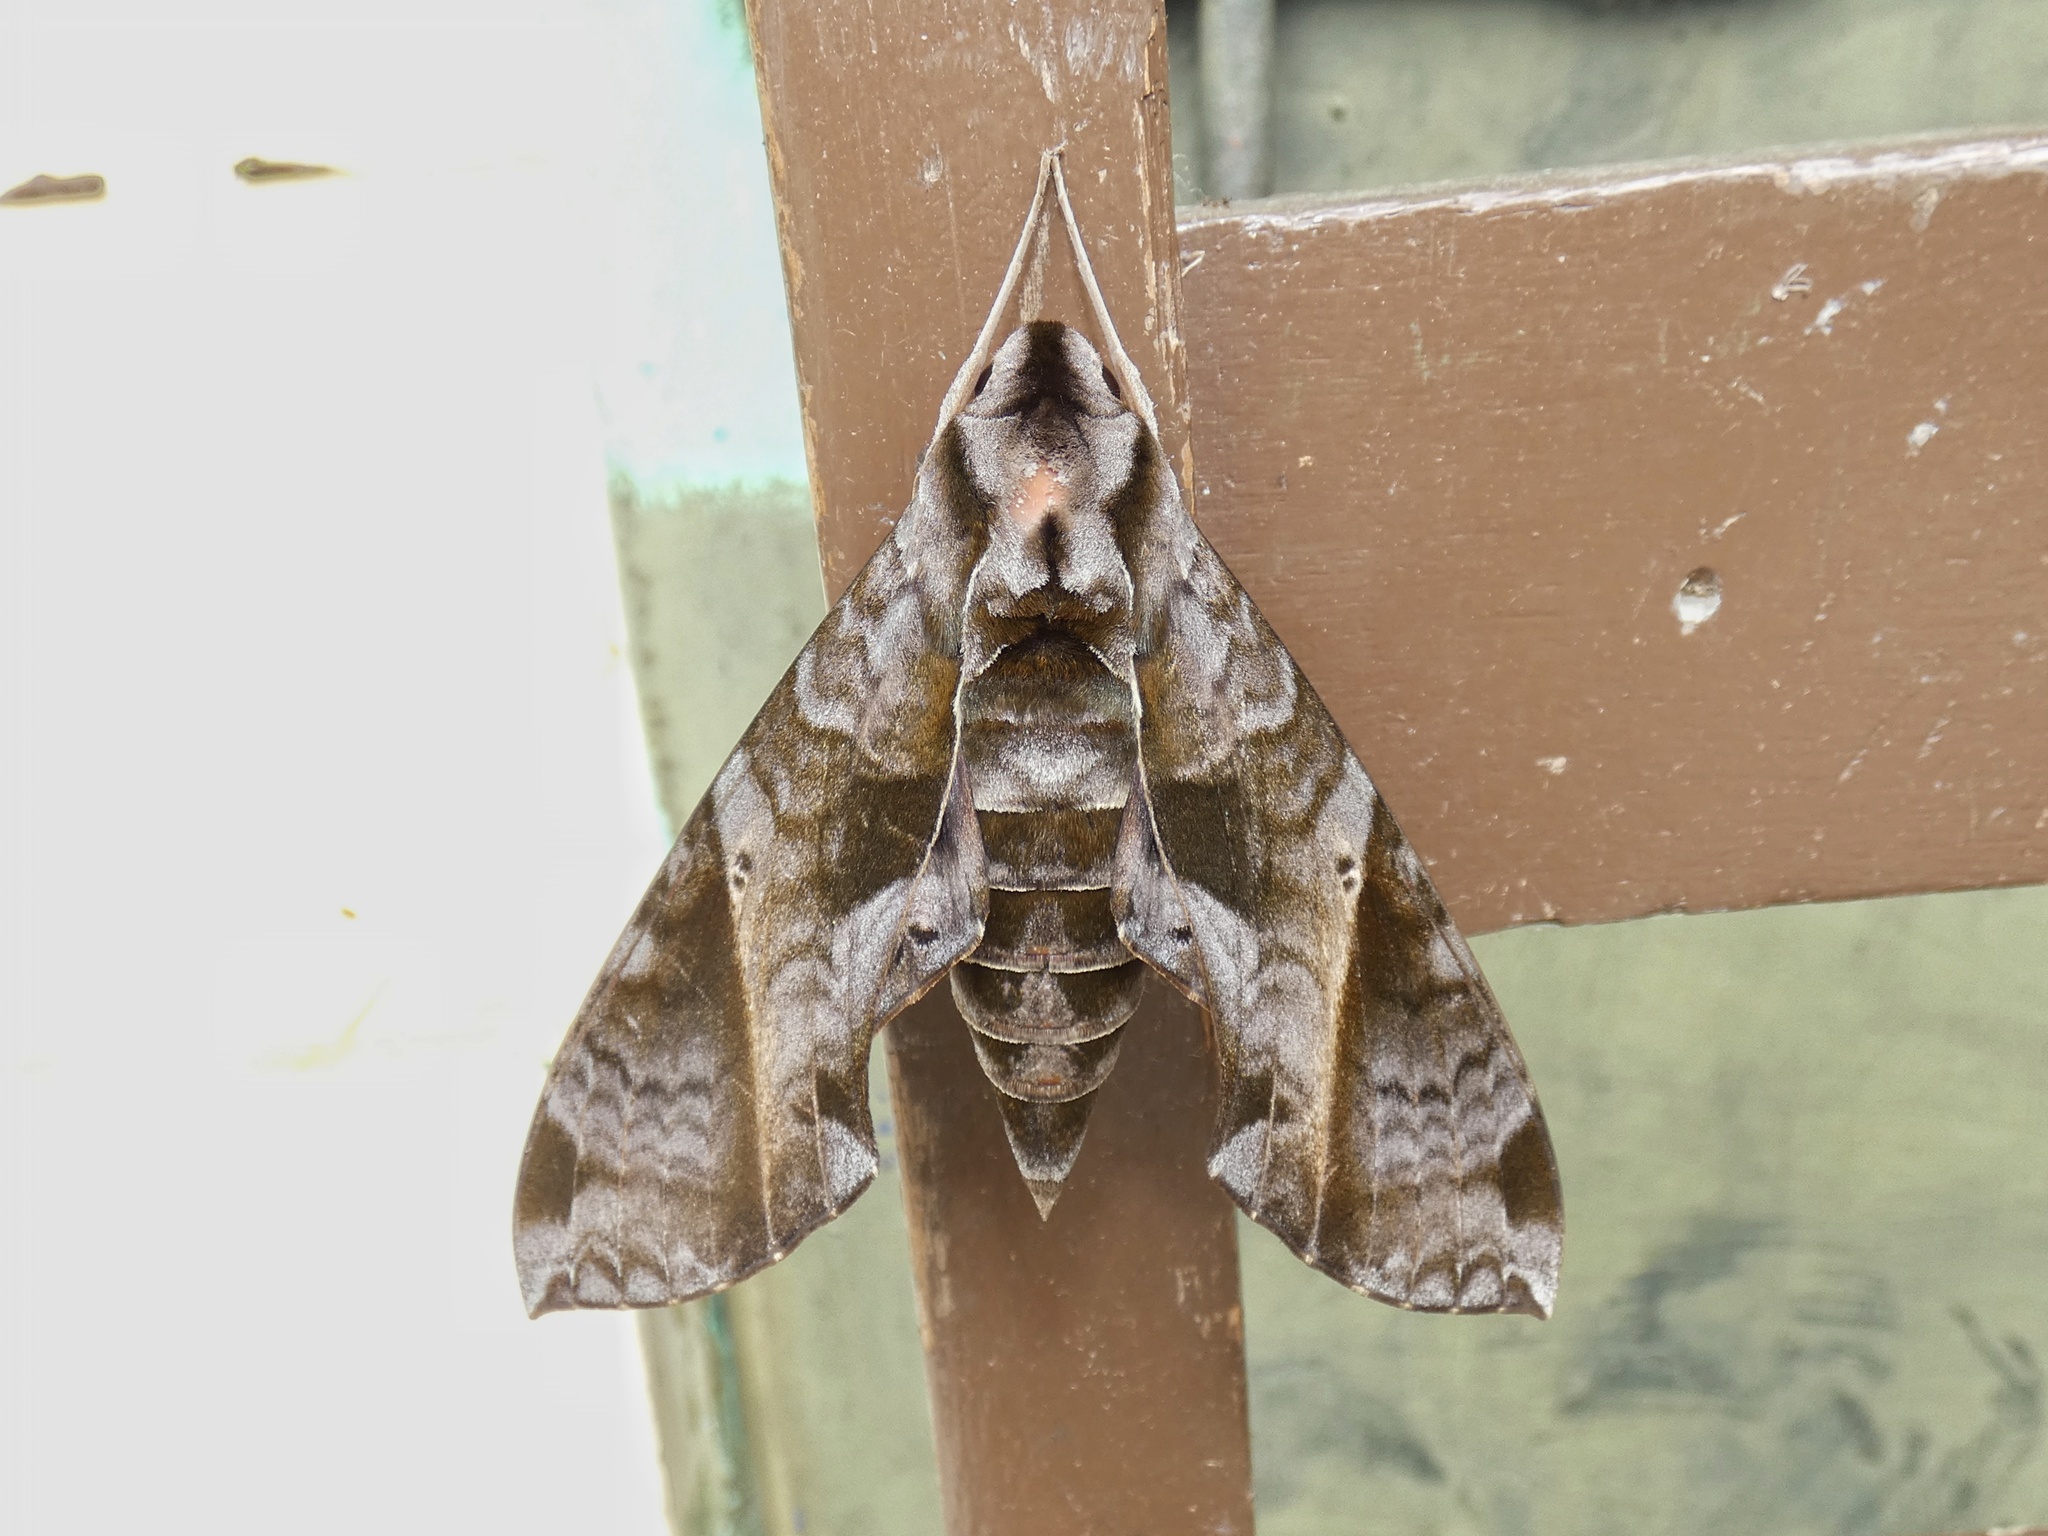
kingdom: Animalia
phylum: Arthropoda
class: Insecta
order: Lepidoptera
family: Sphingidae
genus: Eumorpha
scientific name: Eumorpha anchemolus
